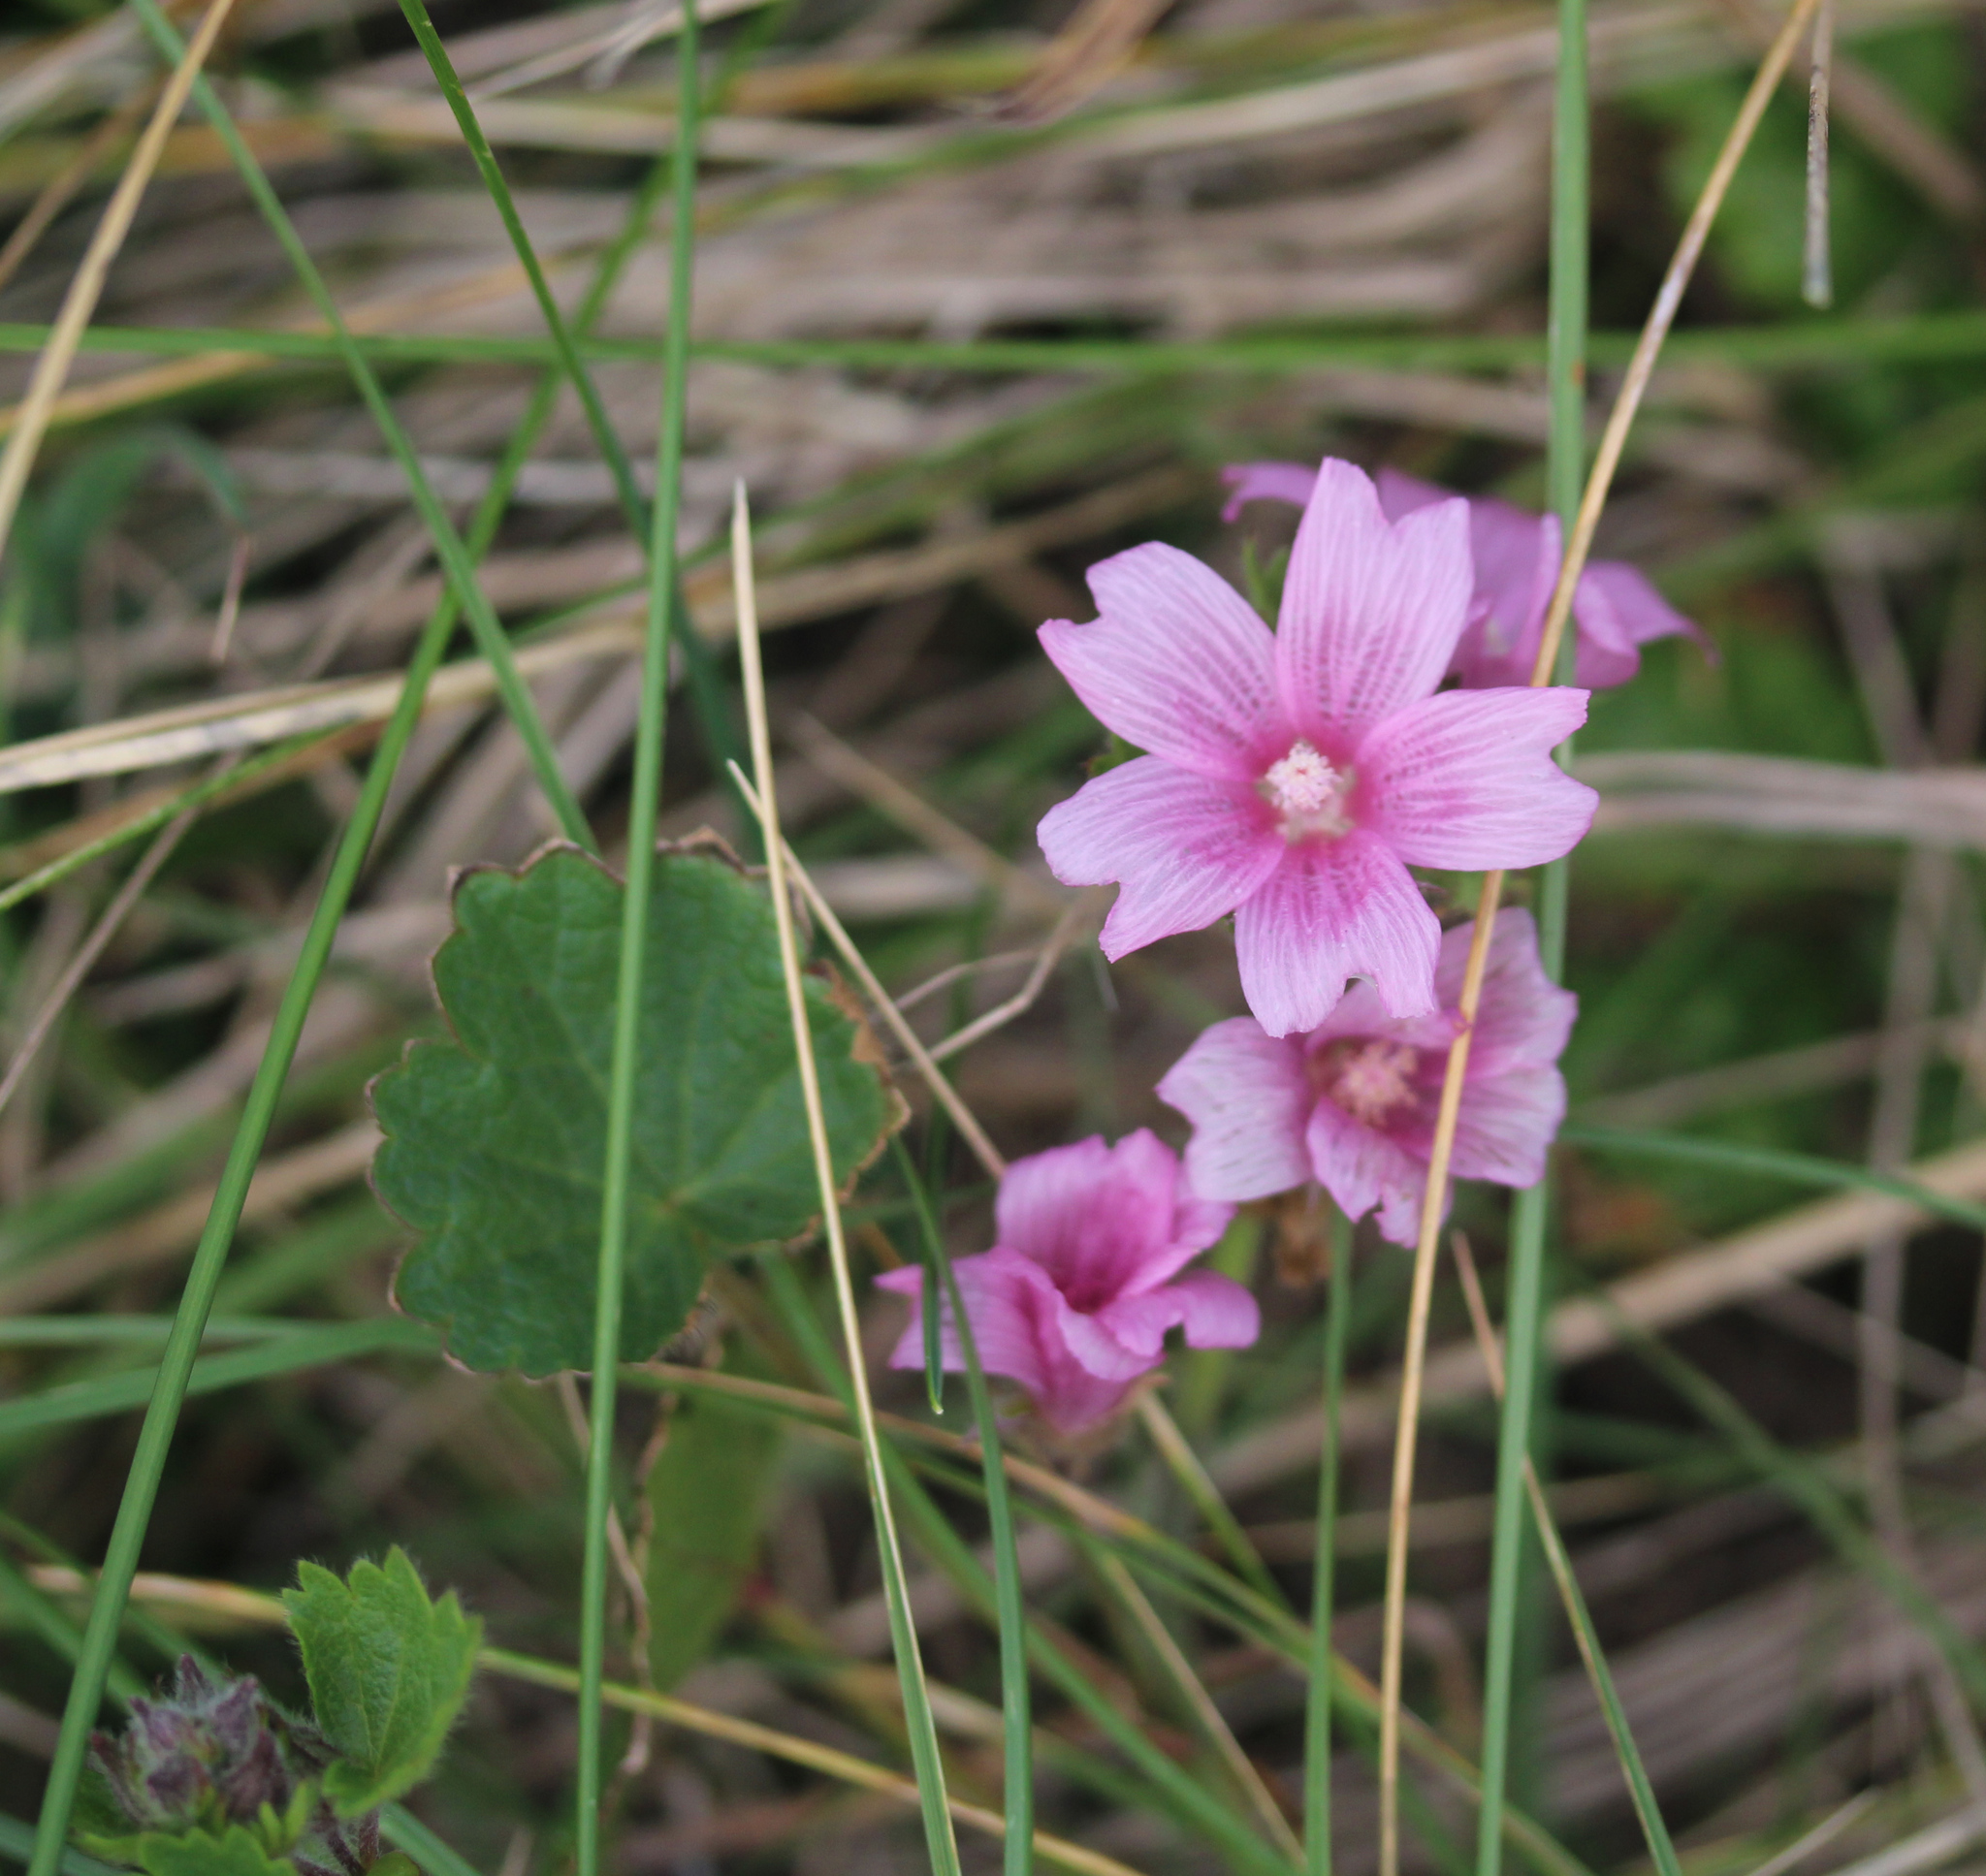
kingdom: Plantae
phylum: Tracheophyta
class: Magnoliopsida
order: Malvales
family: Malvaceae
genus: Sidalcea
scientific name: Sidalcea malviflora
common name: Greek mallow
